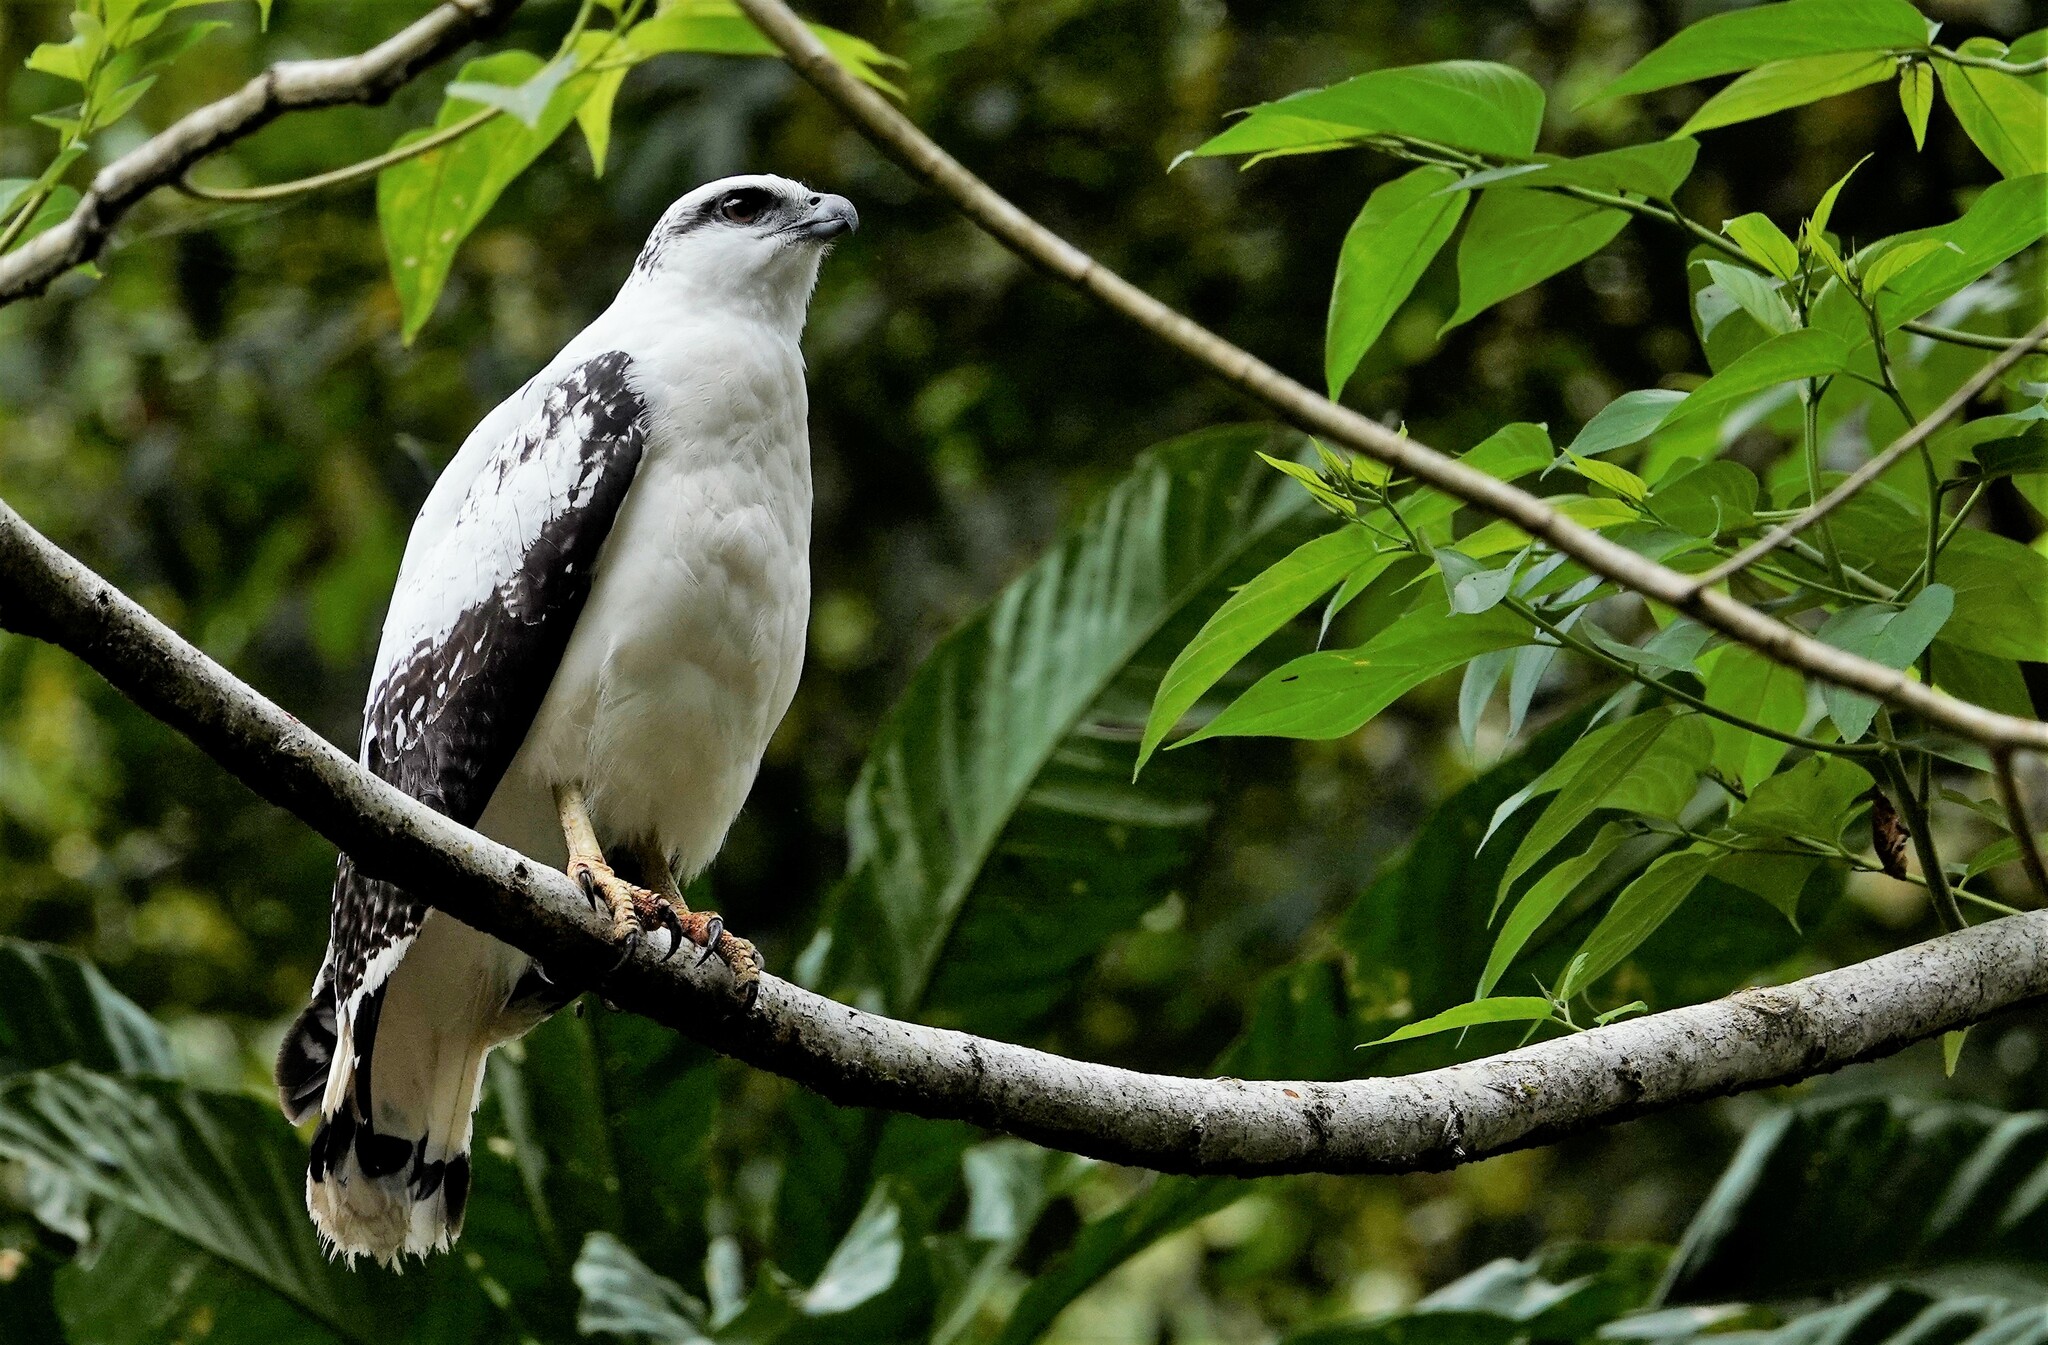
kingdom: Animalia
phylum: Chordata
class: Aves
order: Accipitriformes
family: Accipitridae
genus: Leucopternis
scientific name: Leucopternis albicollis
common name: White hawk
